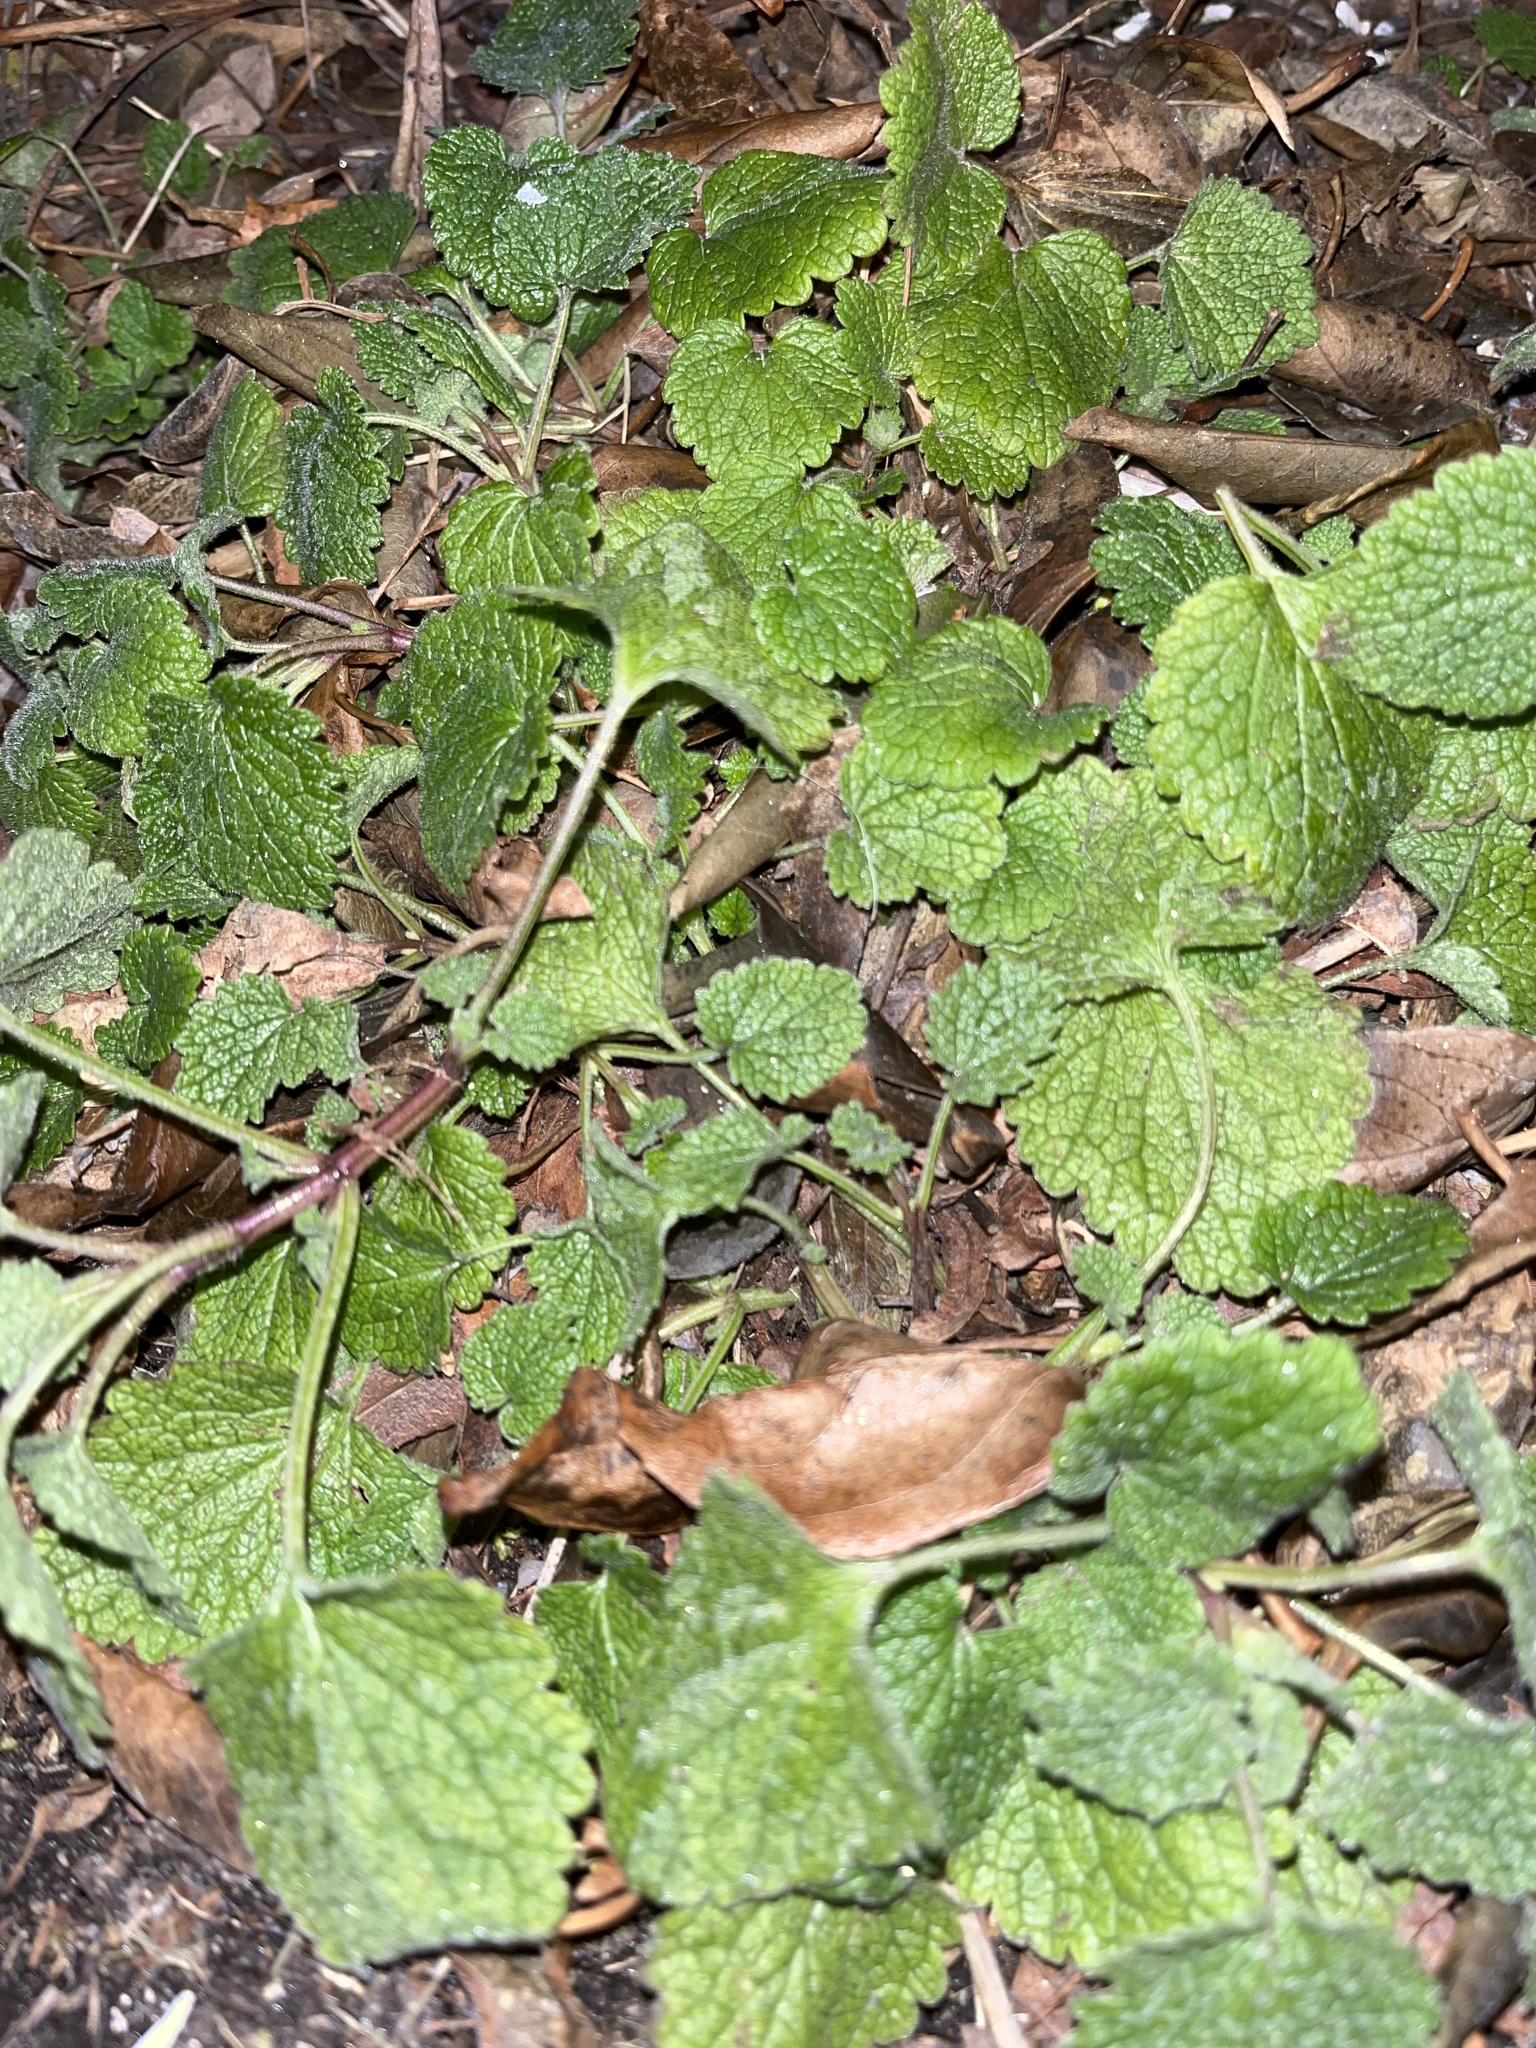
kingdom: Plantae
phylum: Tracheophyta
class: Magnoliopsida
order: Lamiales
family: Lamiaceae
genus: Lamium
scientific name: Lamium purpureum
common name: Red dead-nettle
